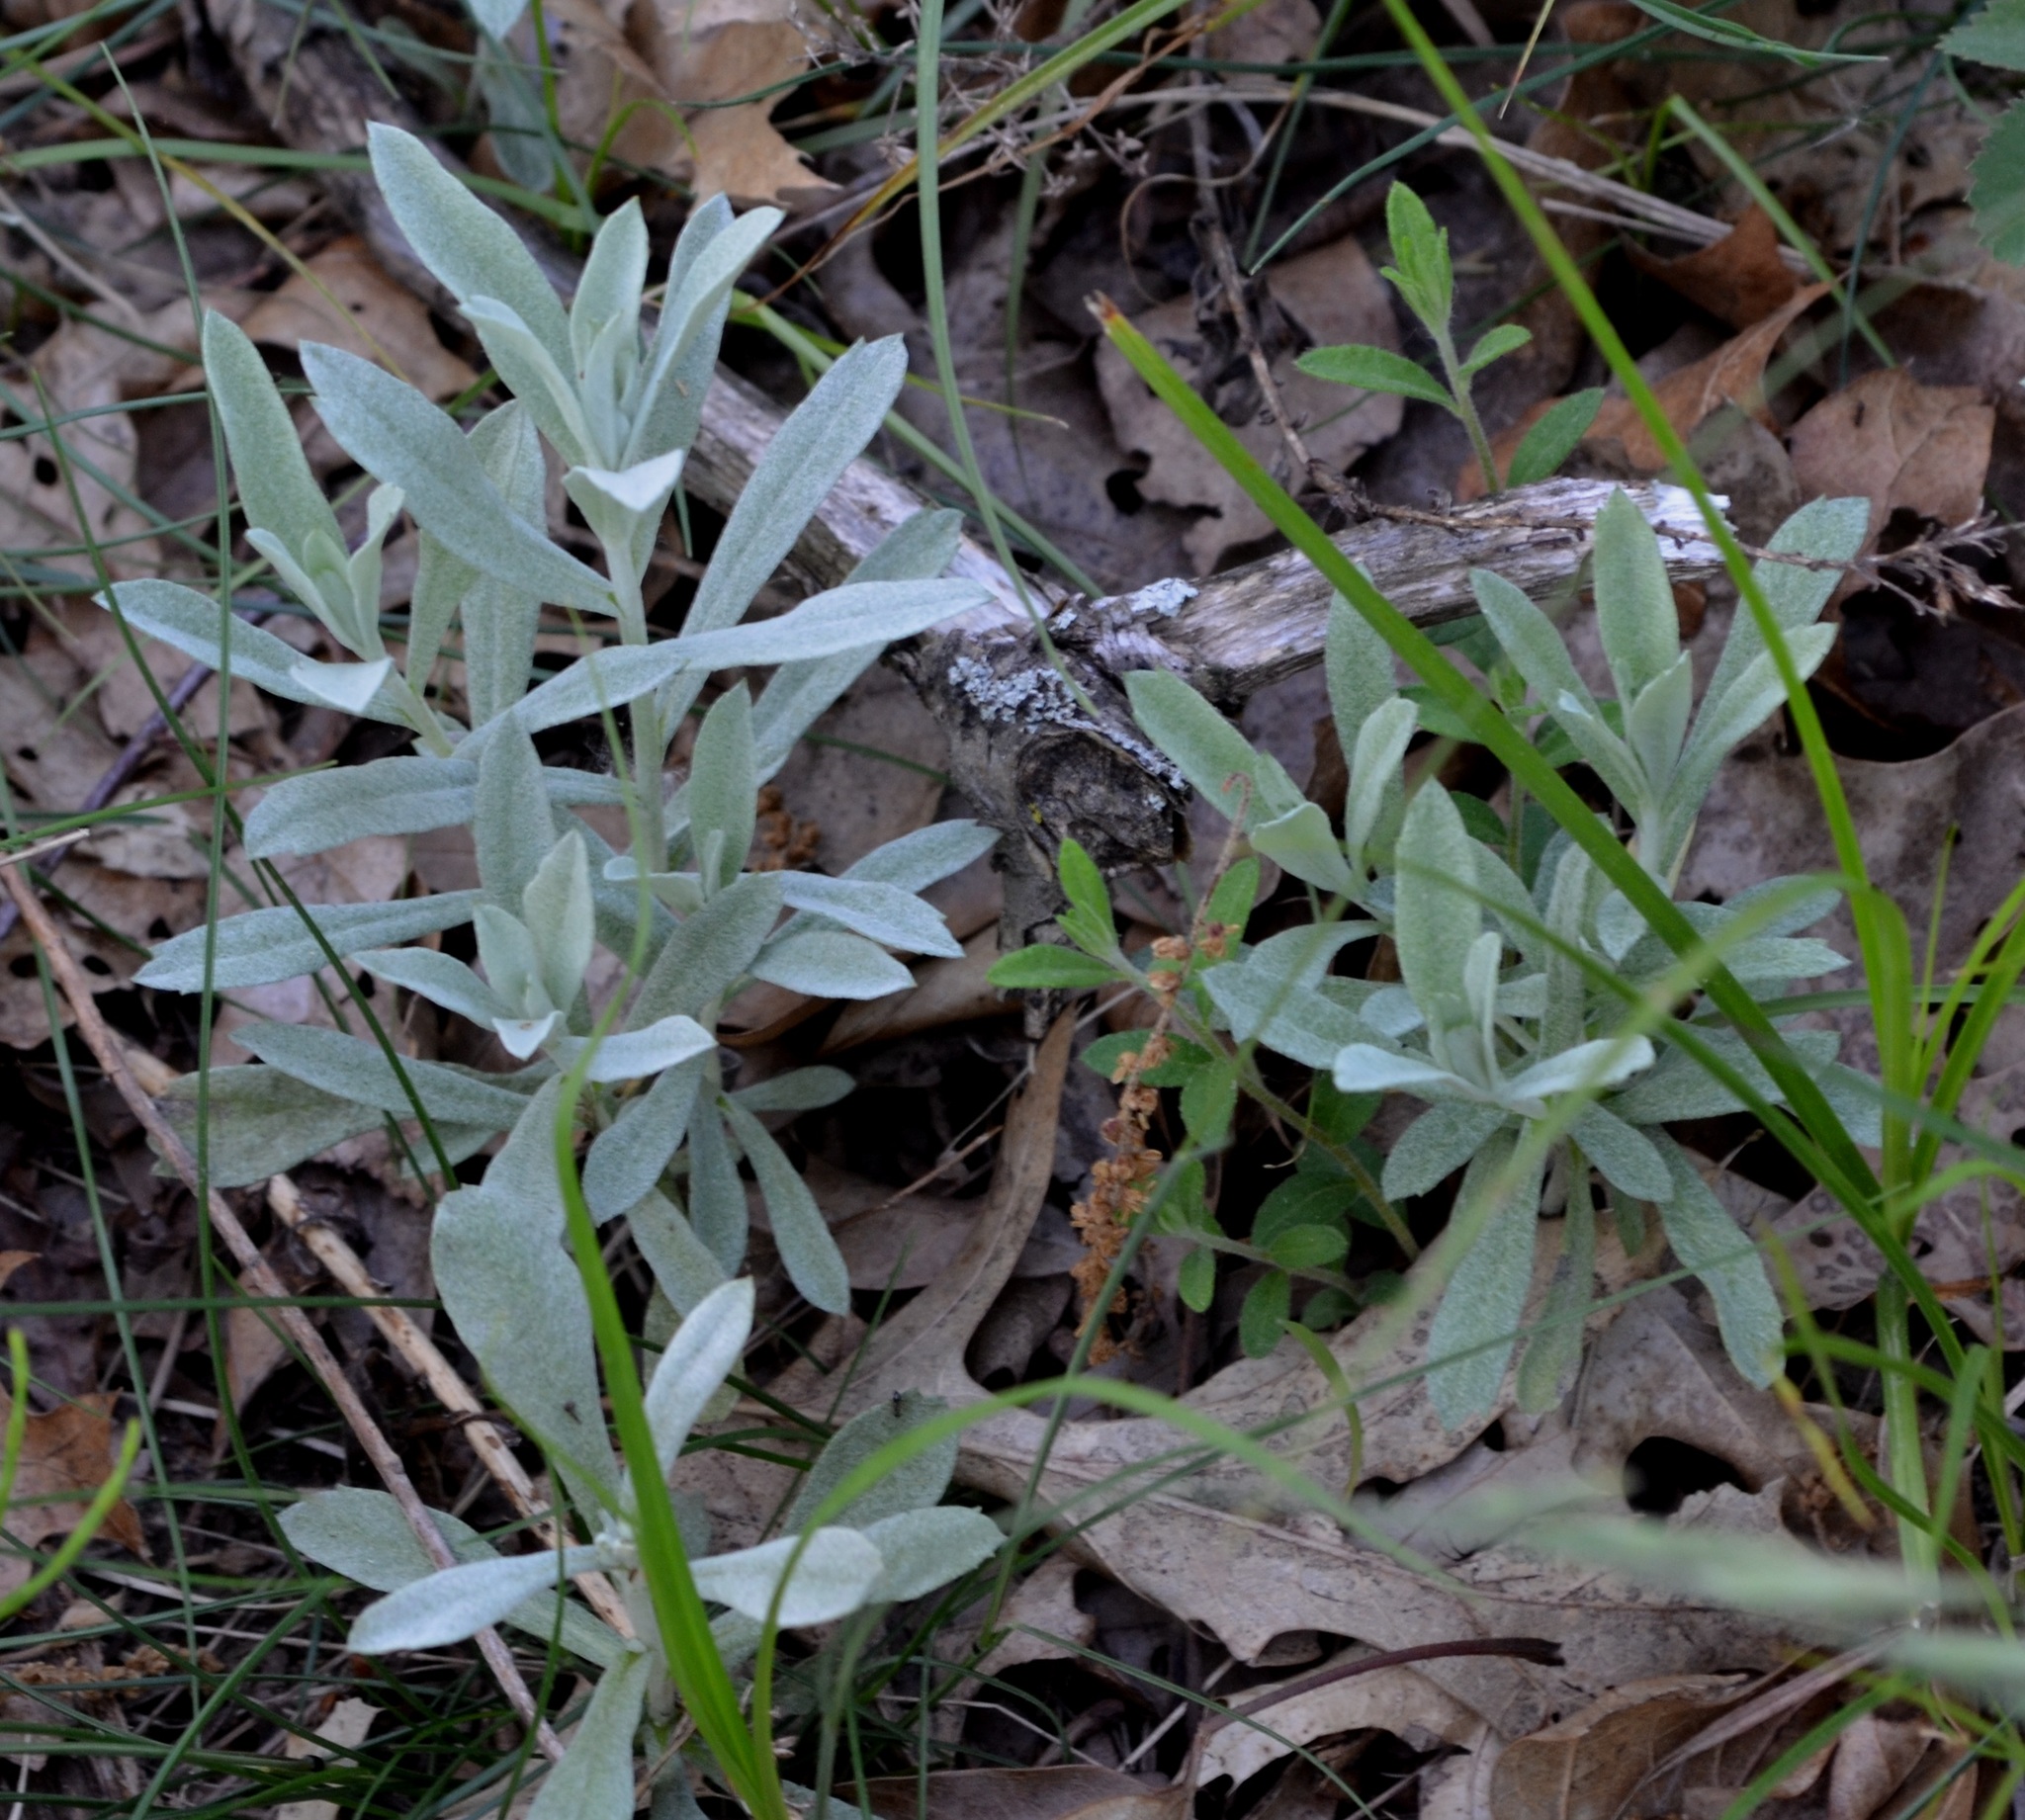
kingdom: Plantae
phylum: Tracheophyta
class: Magnoliopsida
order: Asterales
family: Asteraceae
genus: Artemisia
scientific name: Artemisia ludoviciana
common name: Western mugwort
